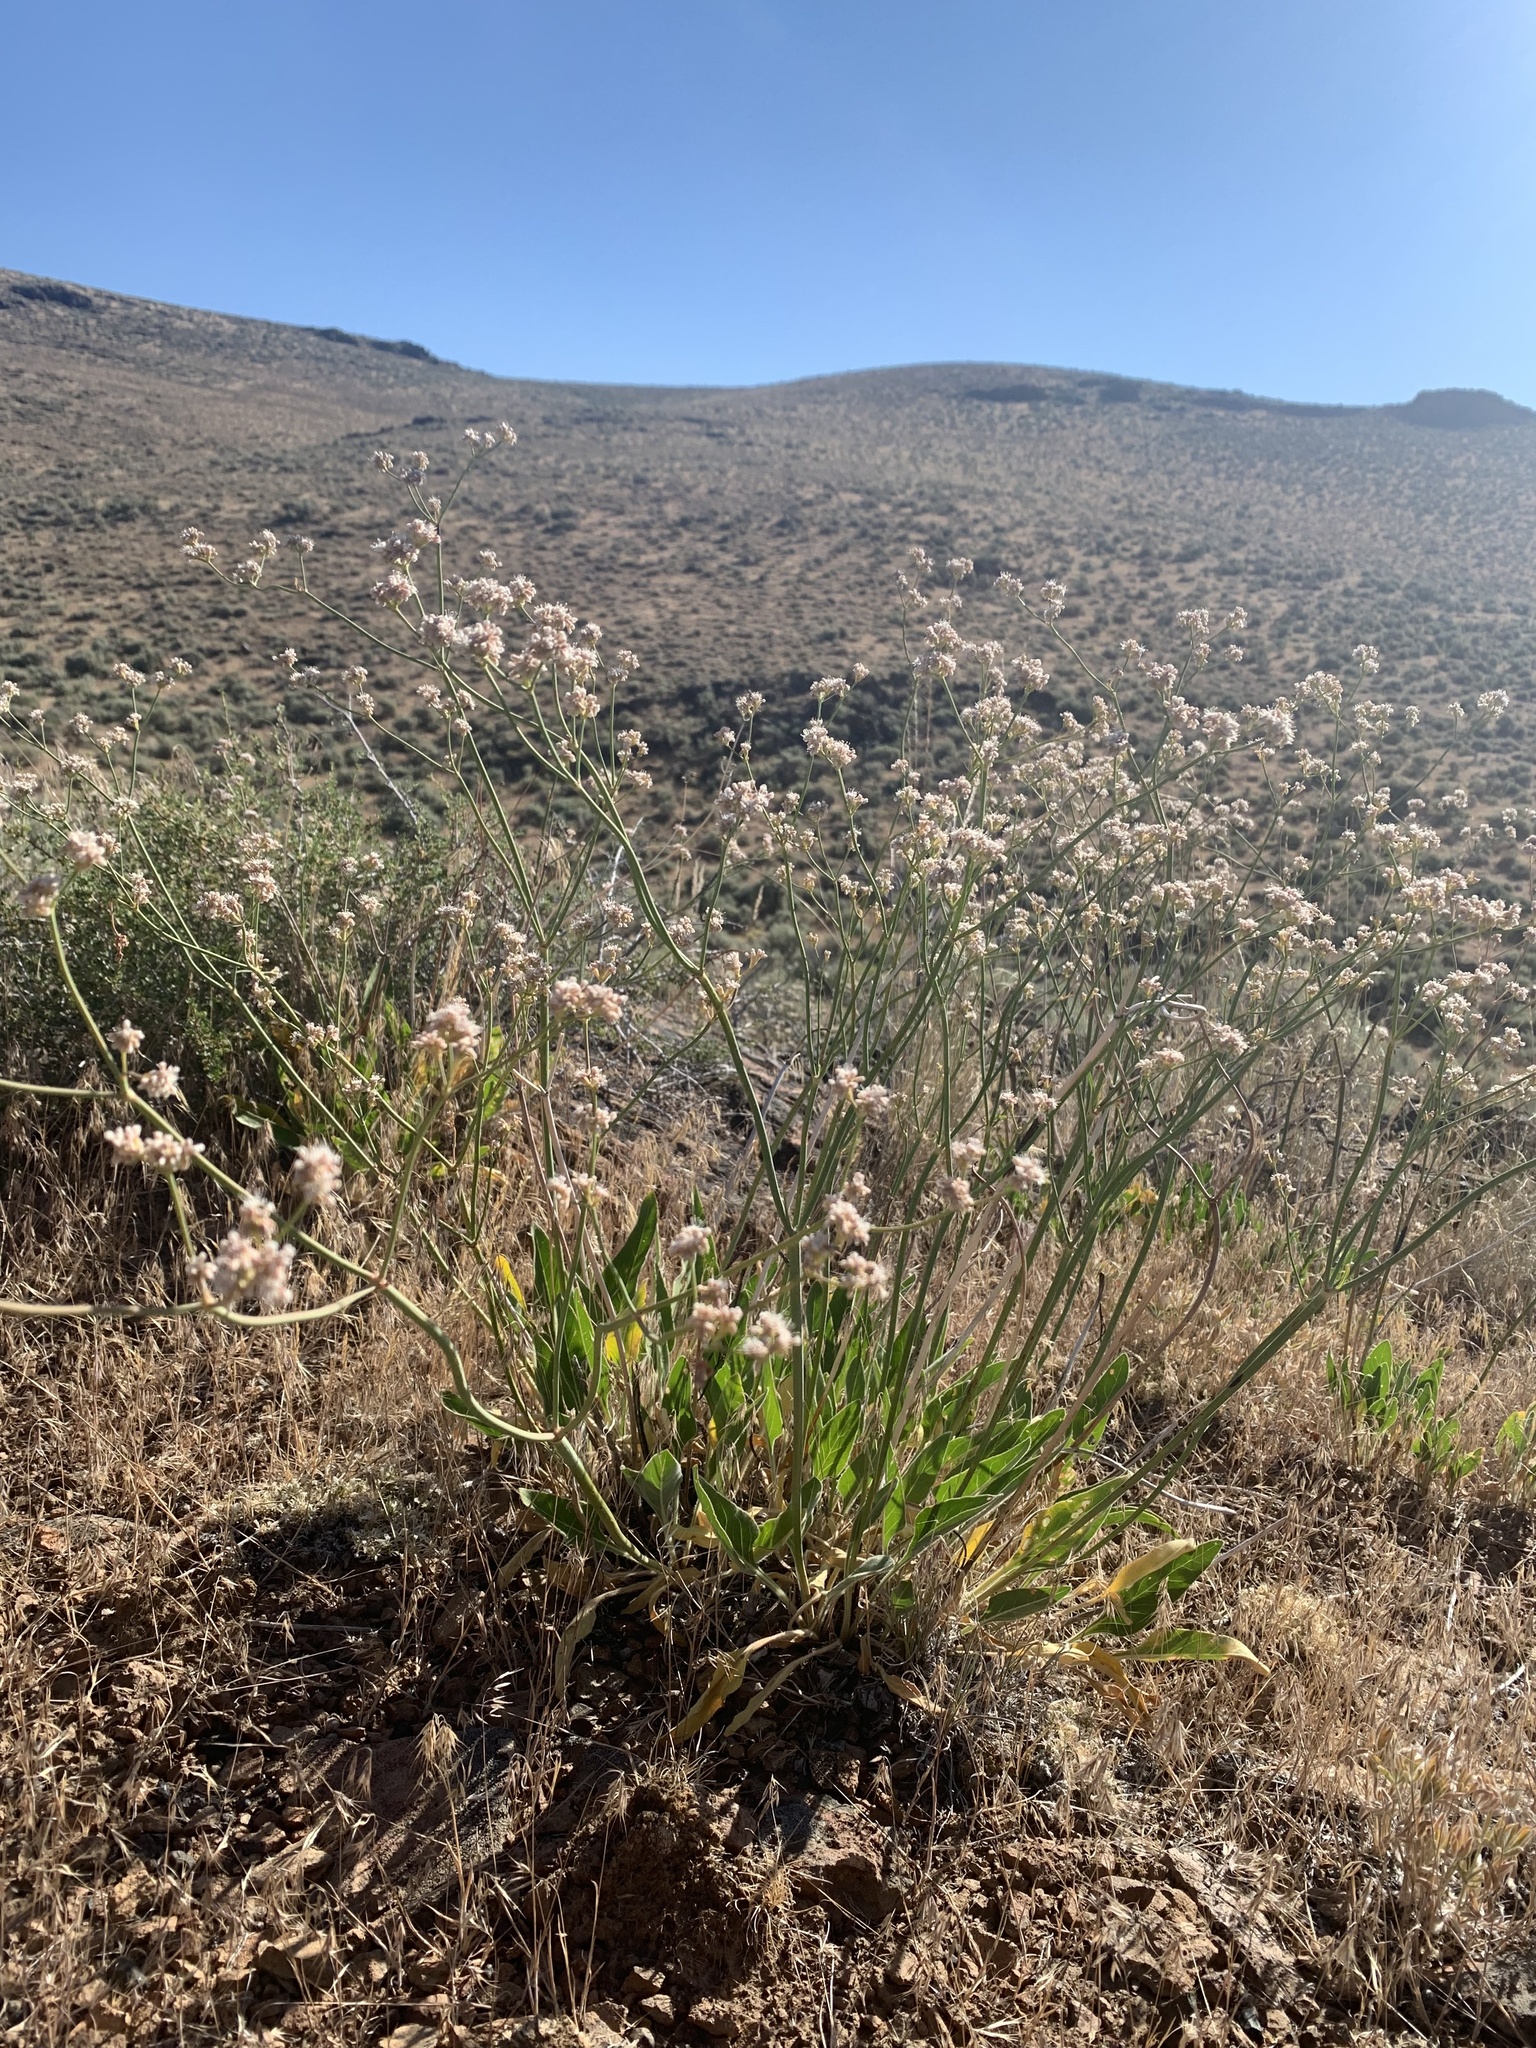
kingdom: Plantae
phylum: Tracheophyta
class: Magnoliopsida
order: Caryophyllales
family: Polygonaceae
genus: Eriogonum
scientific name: Eriogonum elatum
